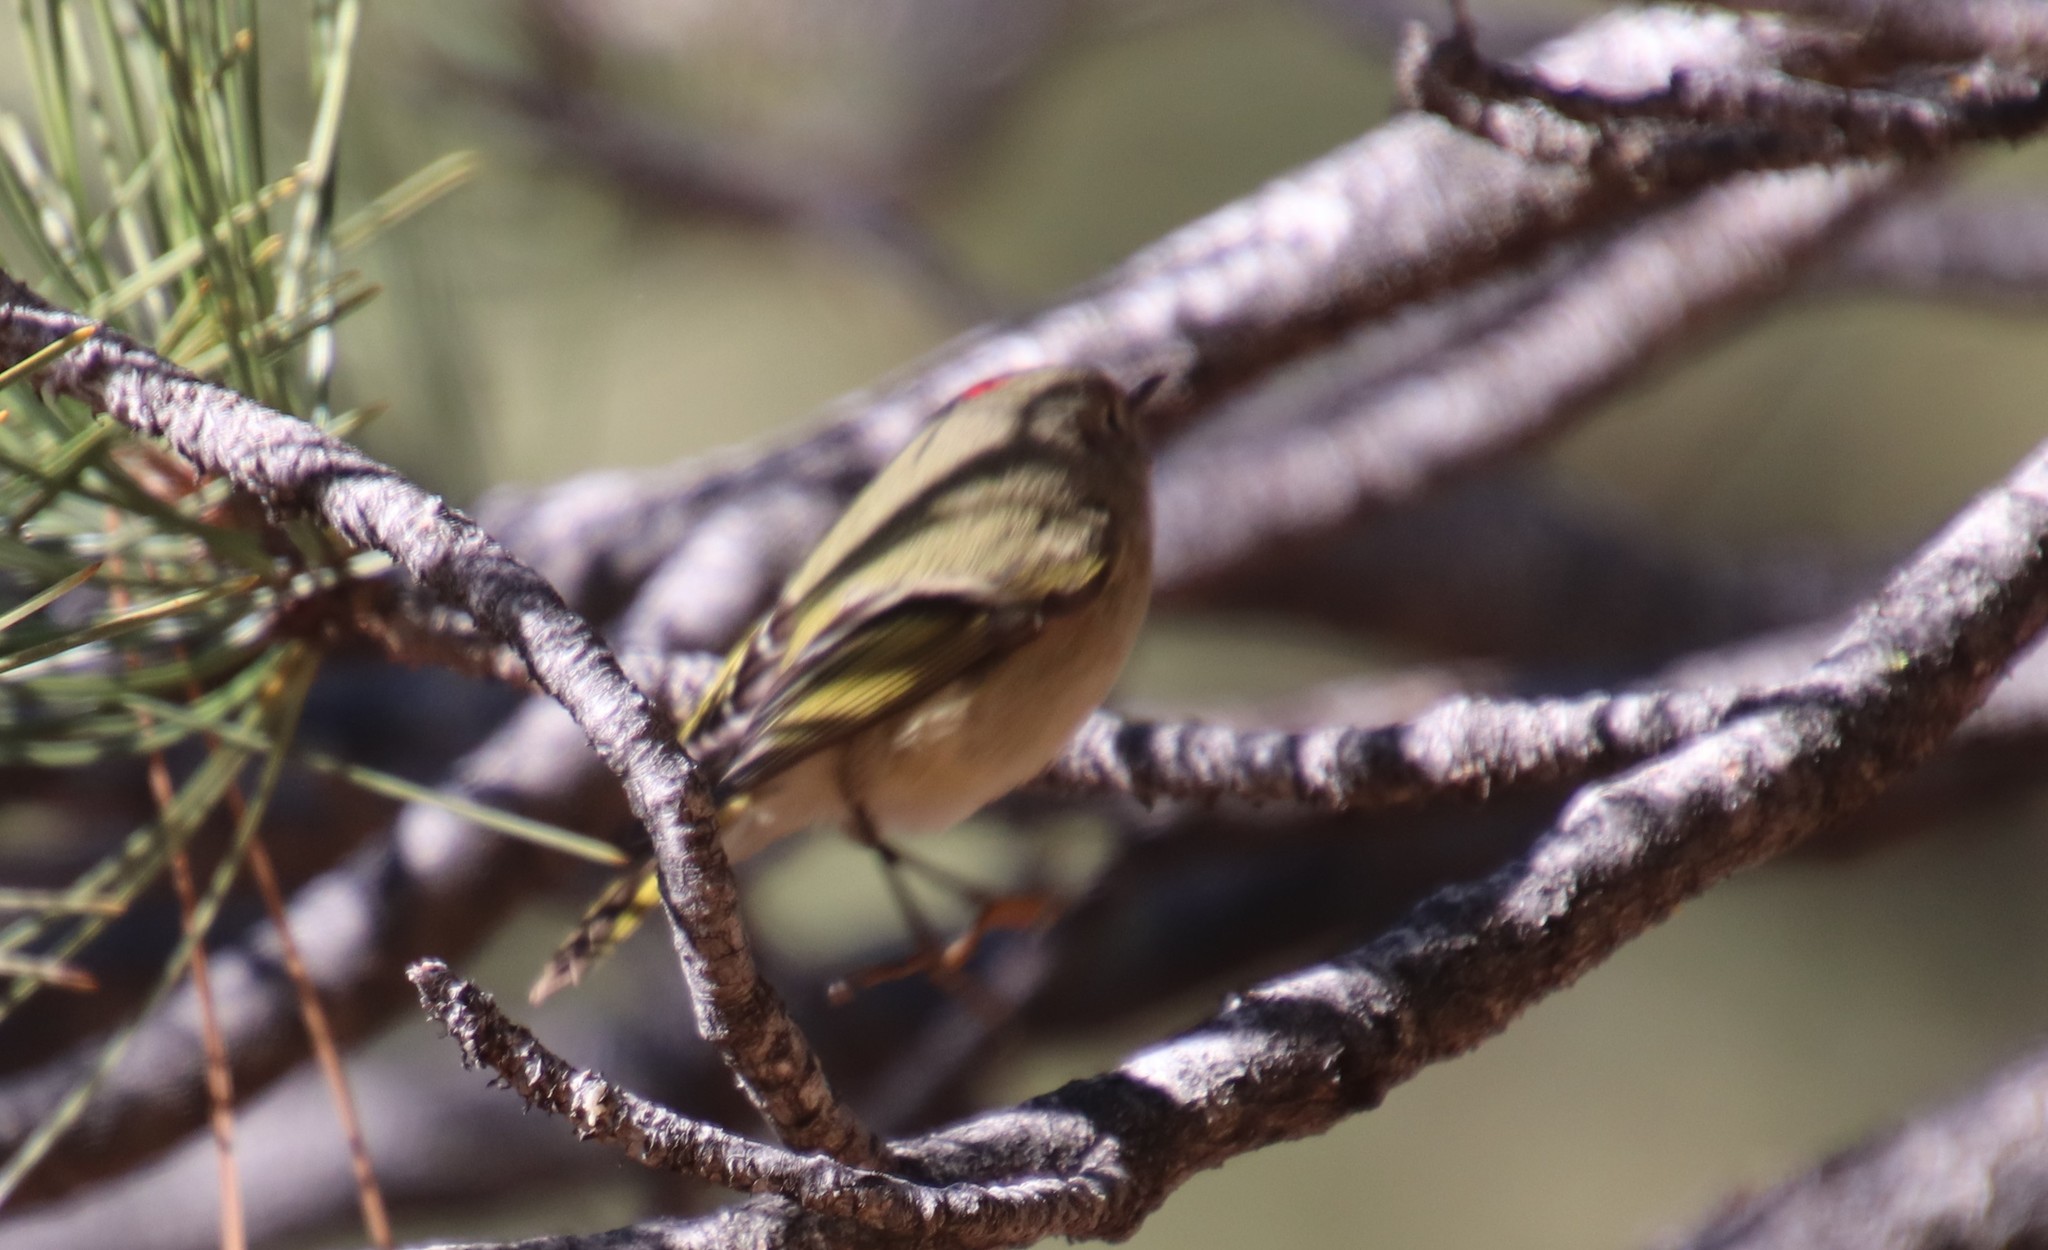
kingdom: Animalia
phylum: Chordata
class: Aves
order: Passeriformes
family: Regulidae
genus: Regulus
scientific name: Regulus calendula
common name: Ruby-crowned kinglet
